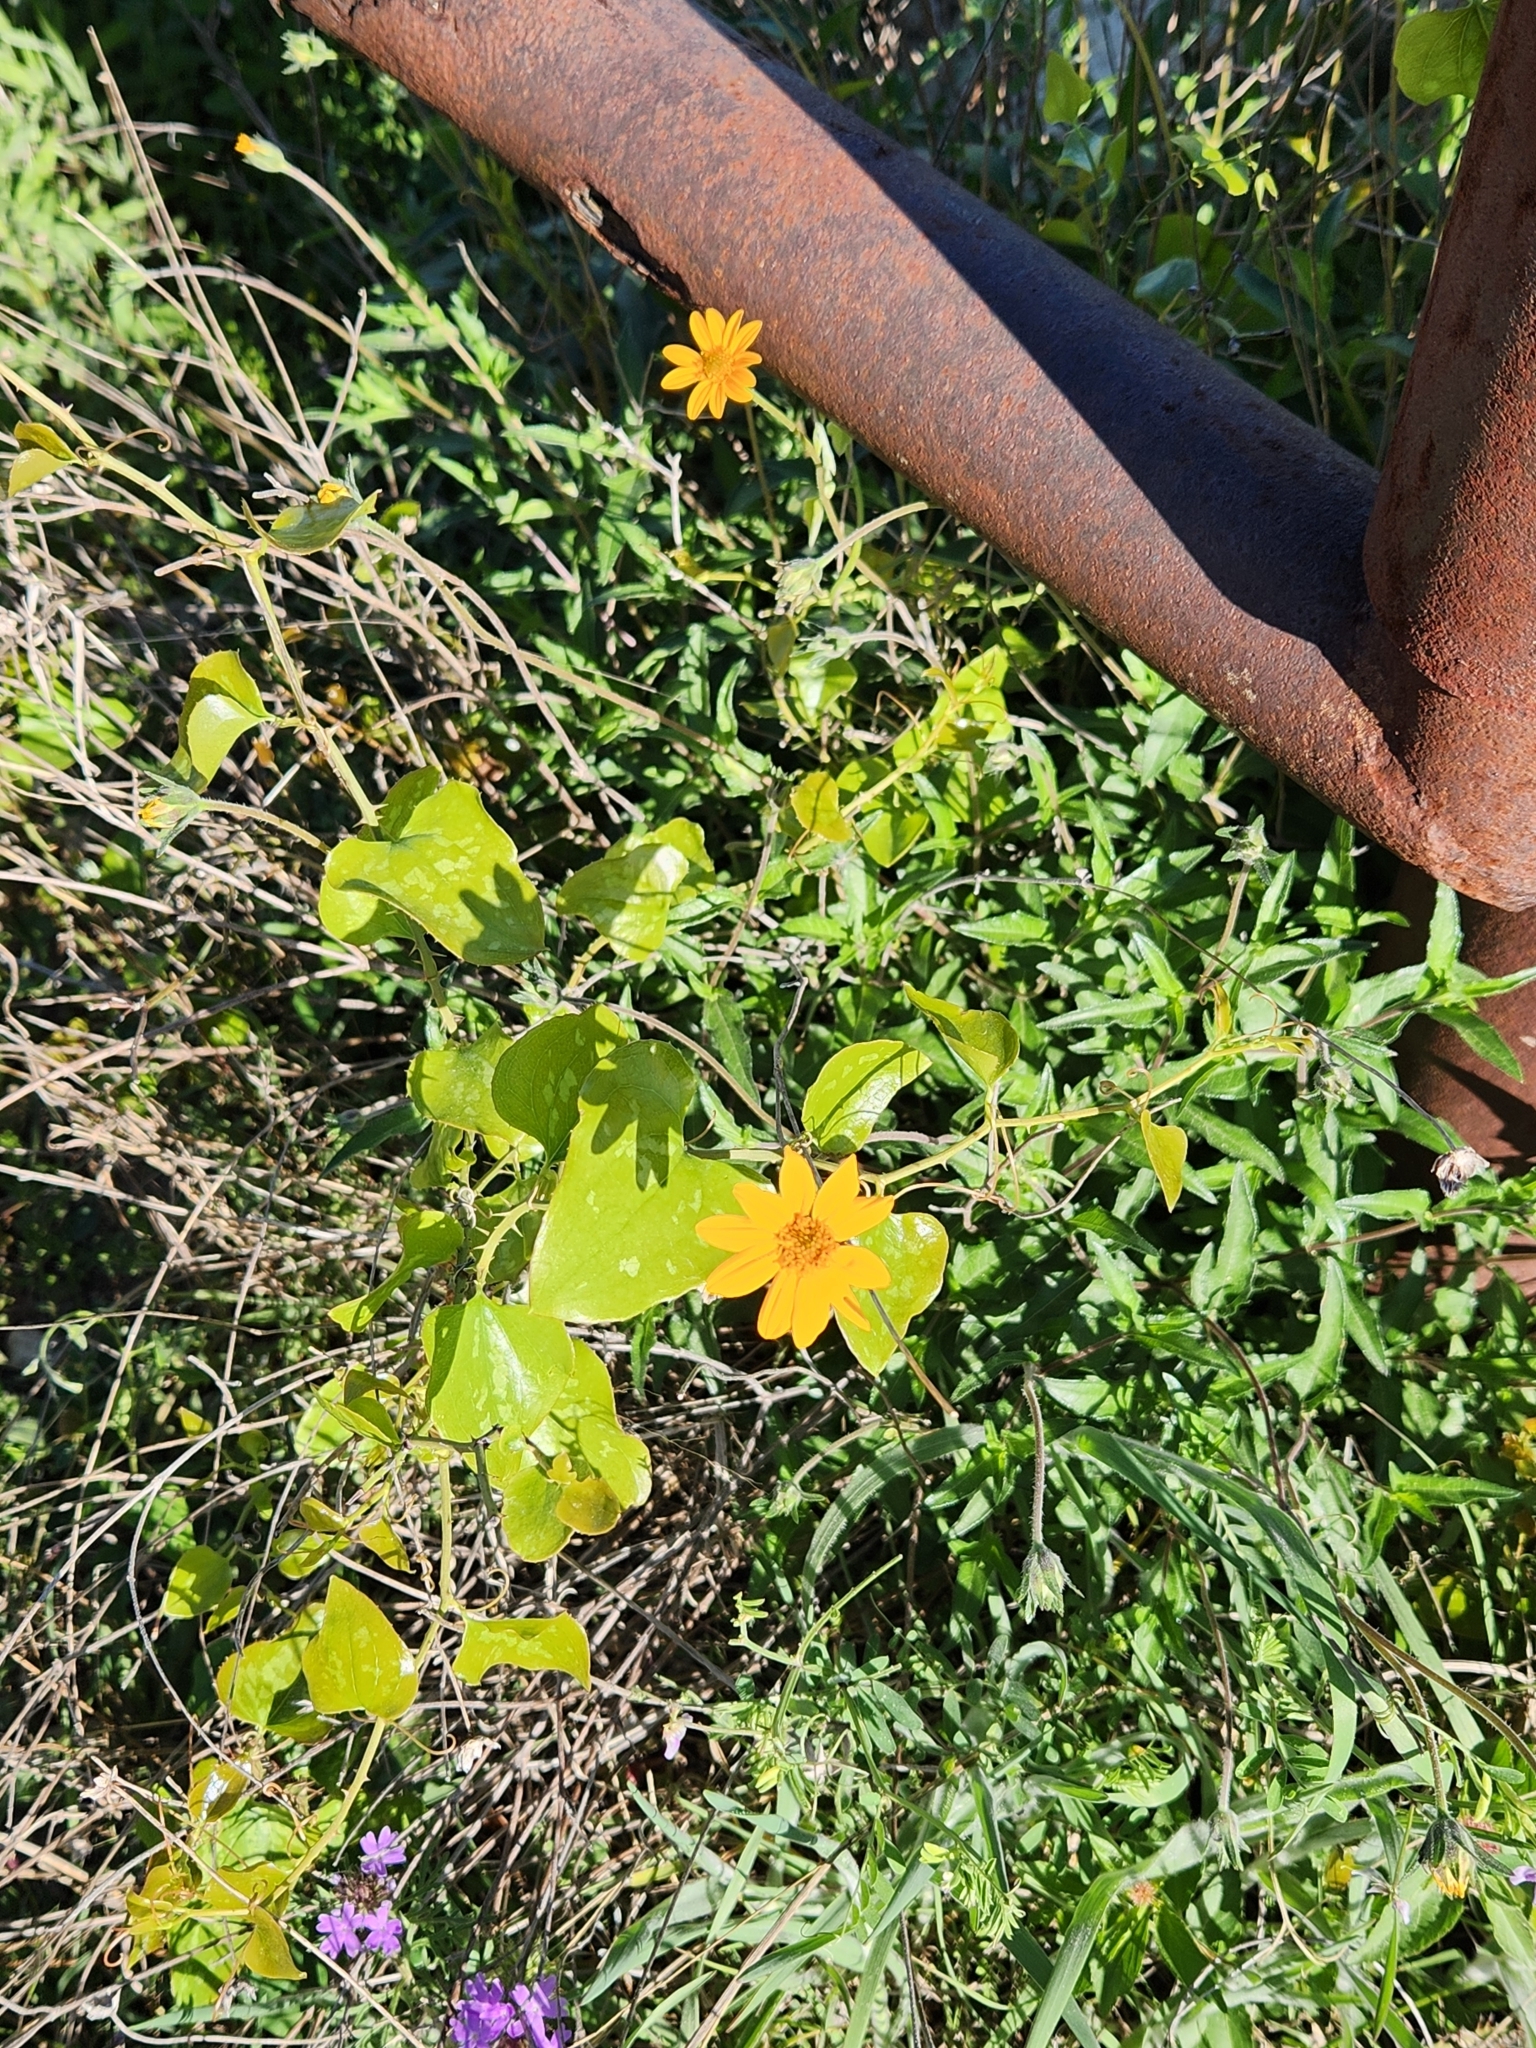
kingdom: Plantae
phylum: Tracheophyta
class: Magnoliopsida
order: Asterales
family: Asteraceae
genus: Wedelia
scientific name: Wedelia acapulcensis
